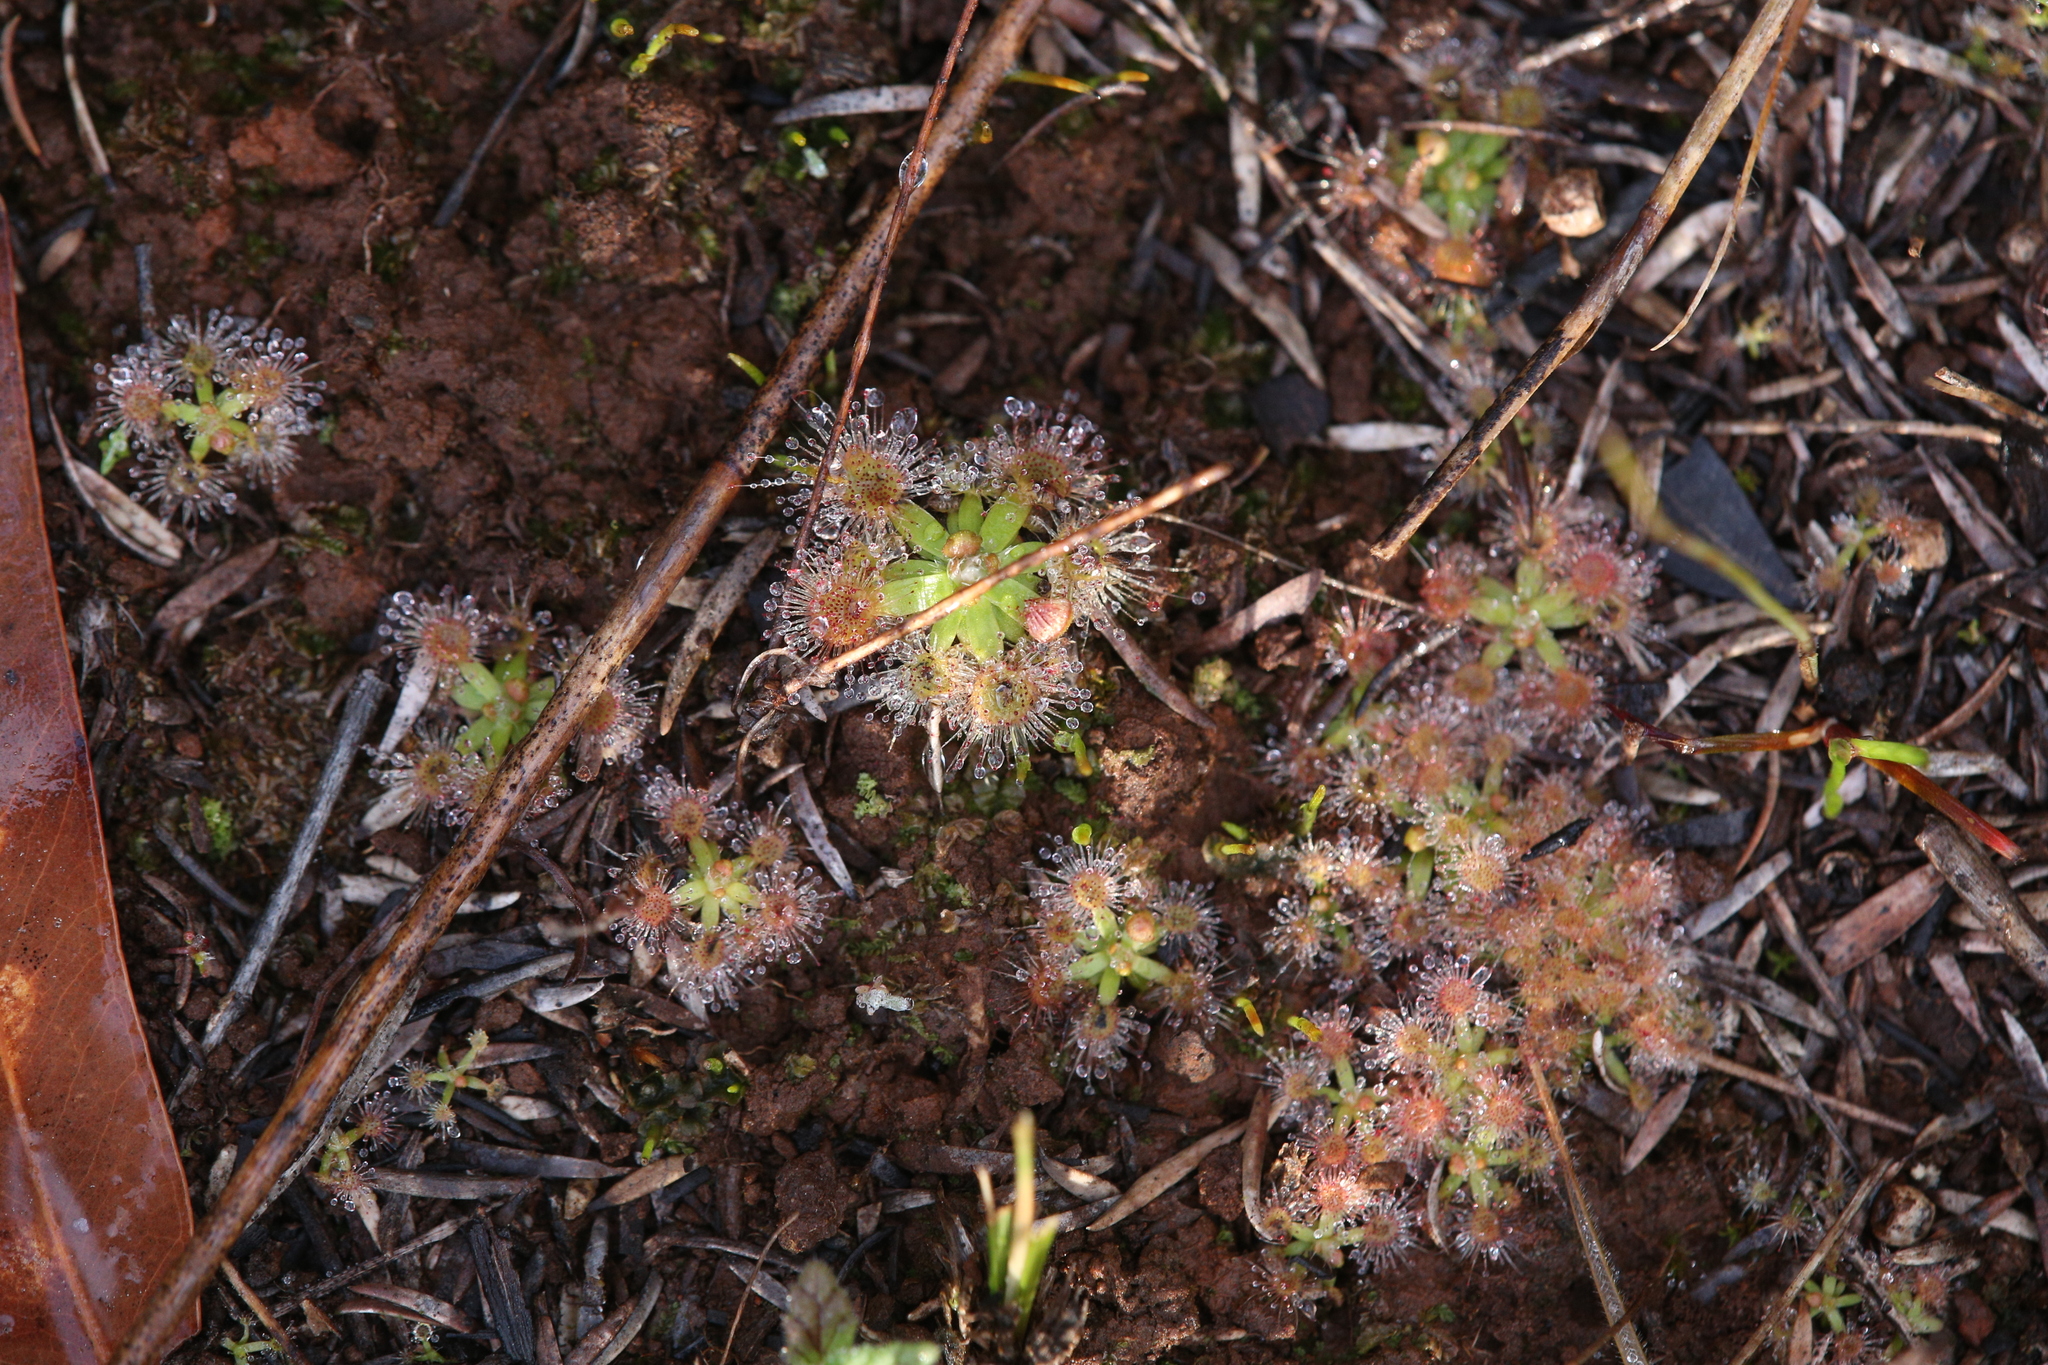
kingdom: Plantae
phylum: Tracheophyta
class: Magnoliopsida
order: Caryophyllales
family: Droseraceae
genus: Drosera
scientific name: Drosera pulchella
